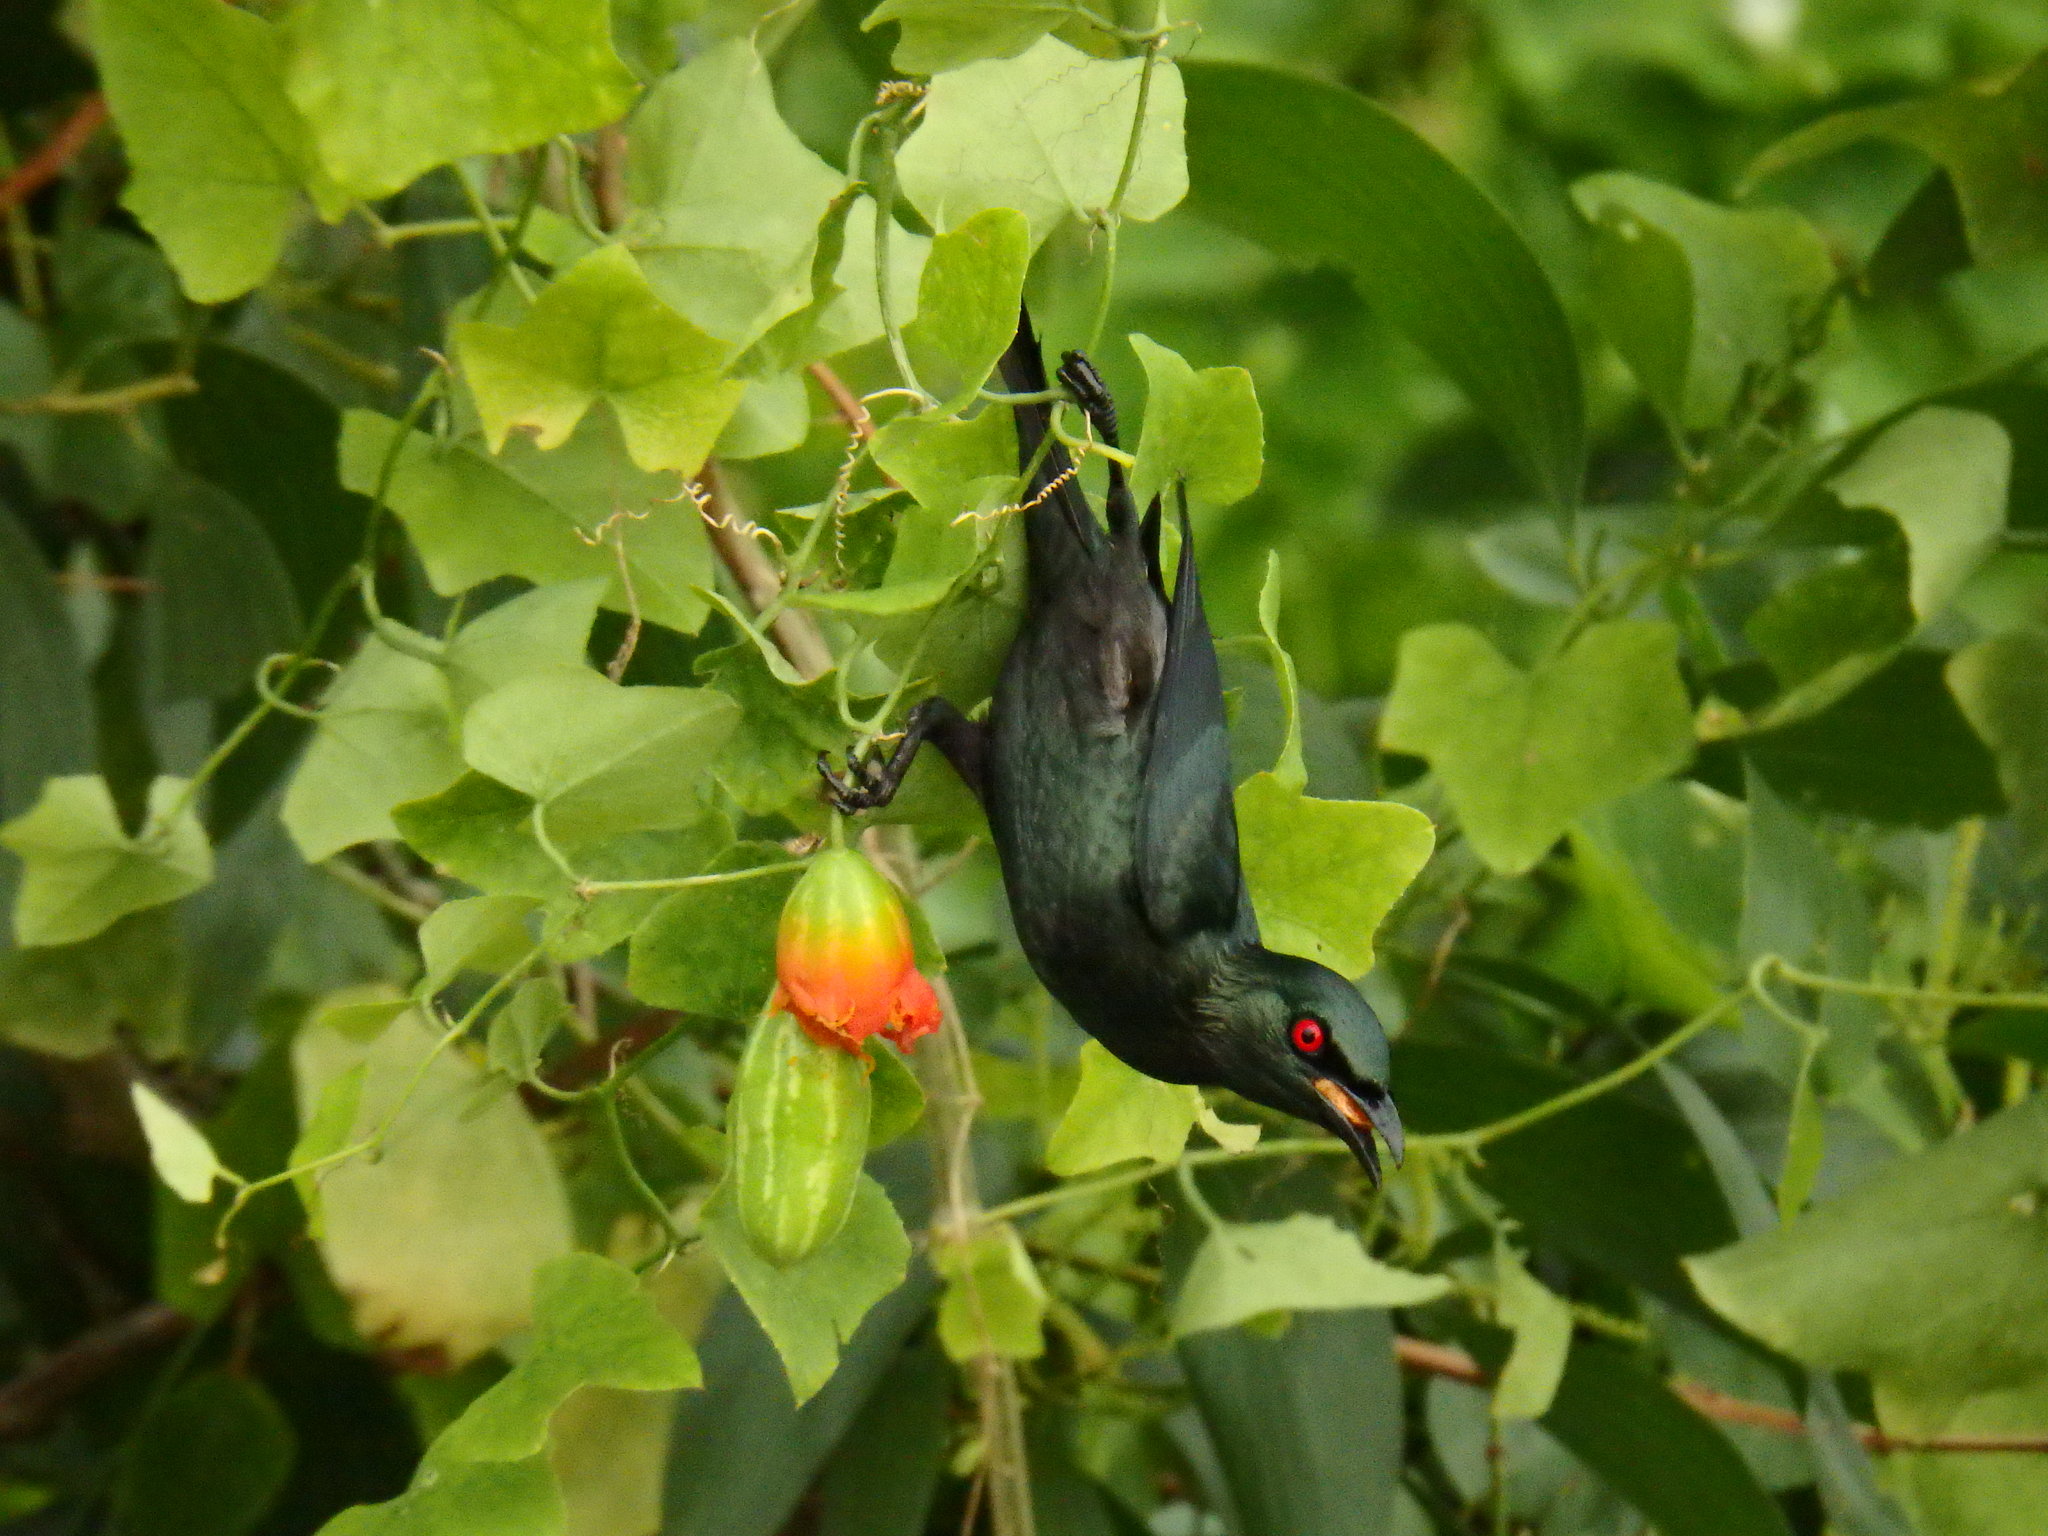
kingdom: Animalia
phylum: Chordata
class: Aves
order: Passeriformes
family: Sturnidae
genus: Aplonis
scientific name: Aplonis panayensis
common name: Asian glossy starling
